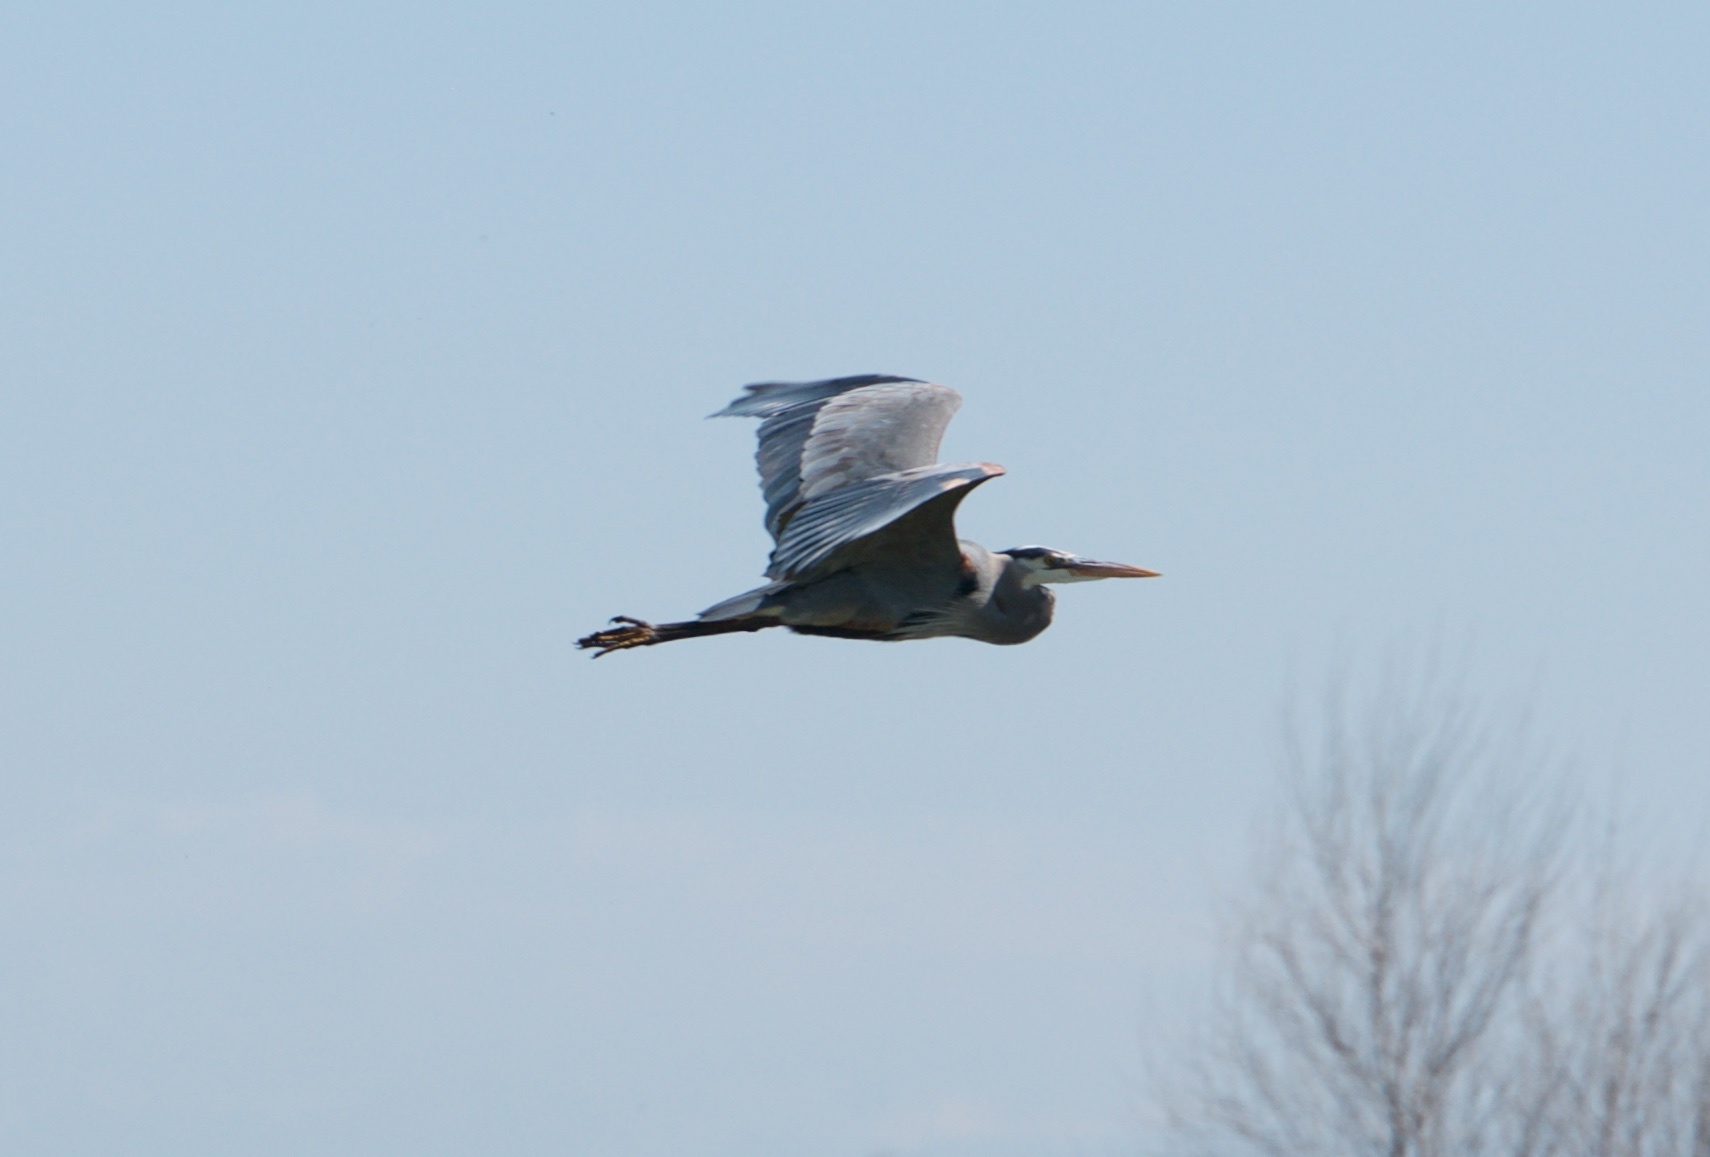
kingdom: Animalia
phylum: Chordata
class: Aves
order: Pelecaniformes
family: Ardeidae
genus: Ardea
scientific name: Ardea herodias
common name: Great blue heron
